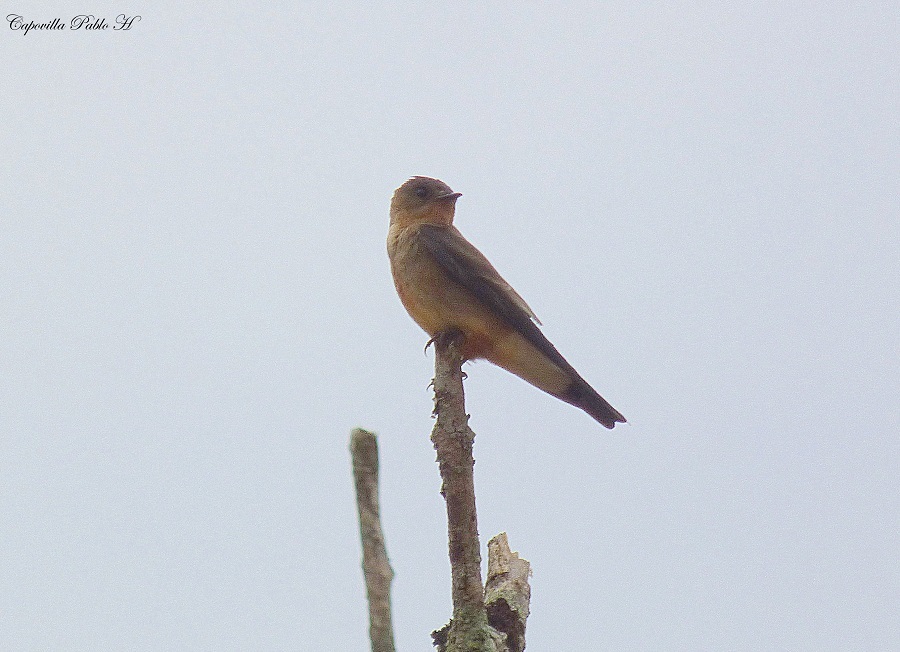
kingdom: Animalia
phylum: Chordata
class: Aves
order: Passeriformes
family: Hirundinidae
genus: Stelgidopteryx
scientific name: Stelgidopteryx ruficollis
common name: Southern rough-winged swallow
